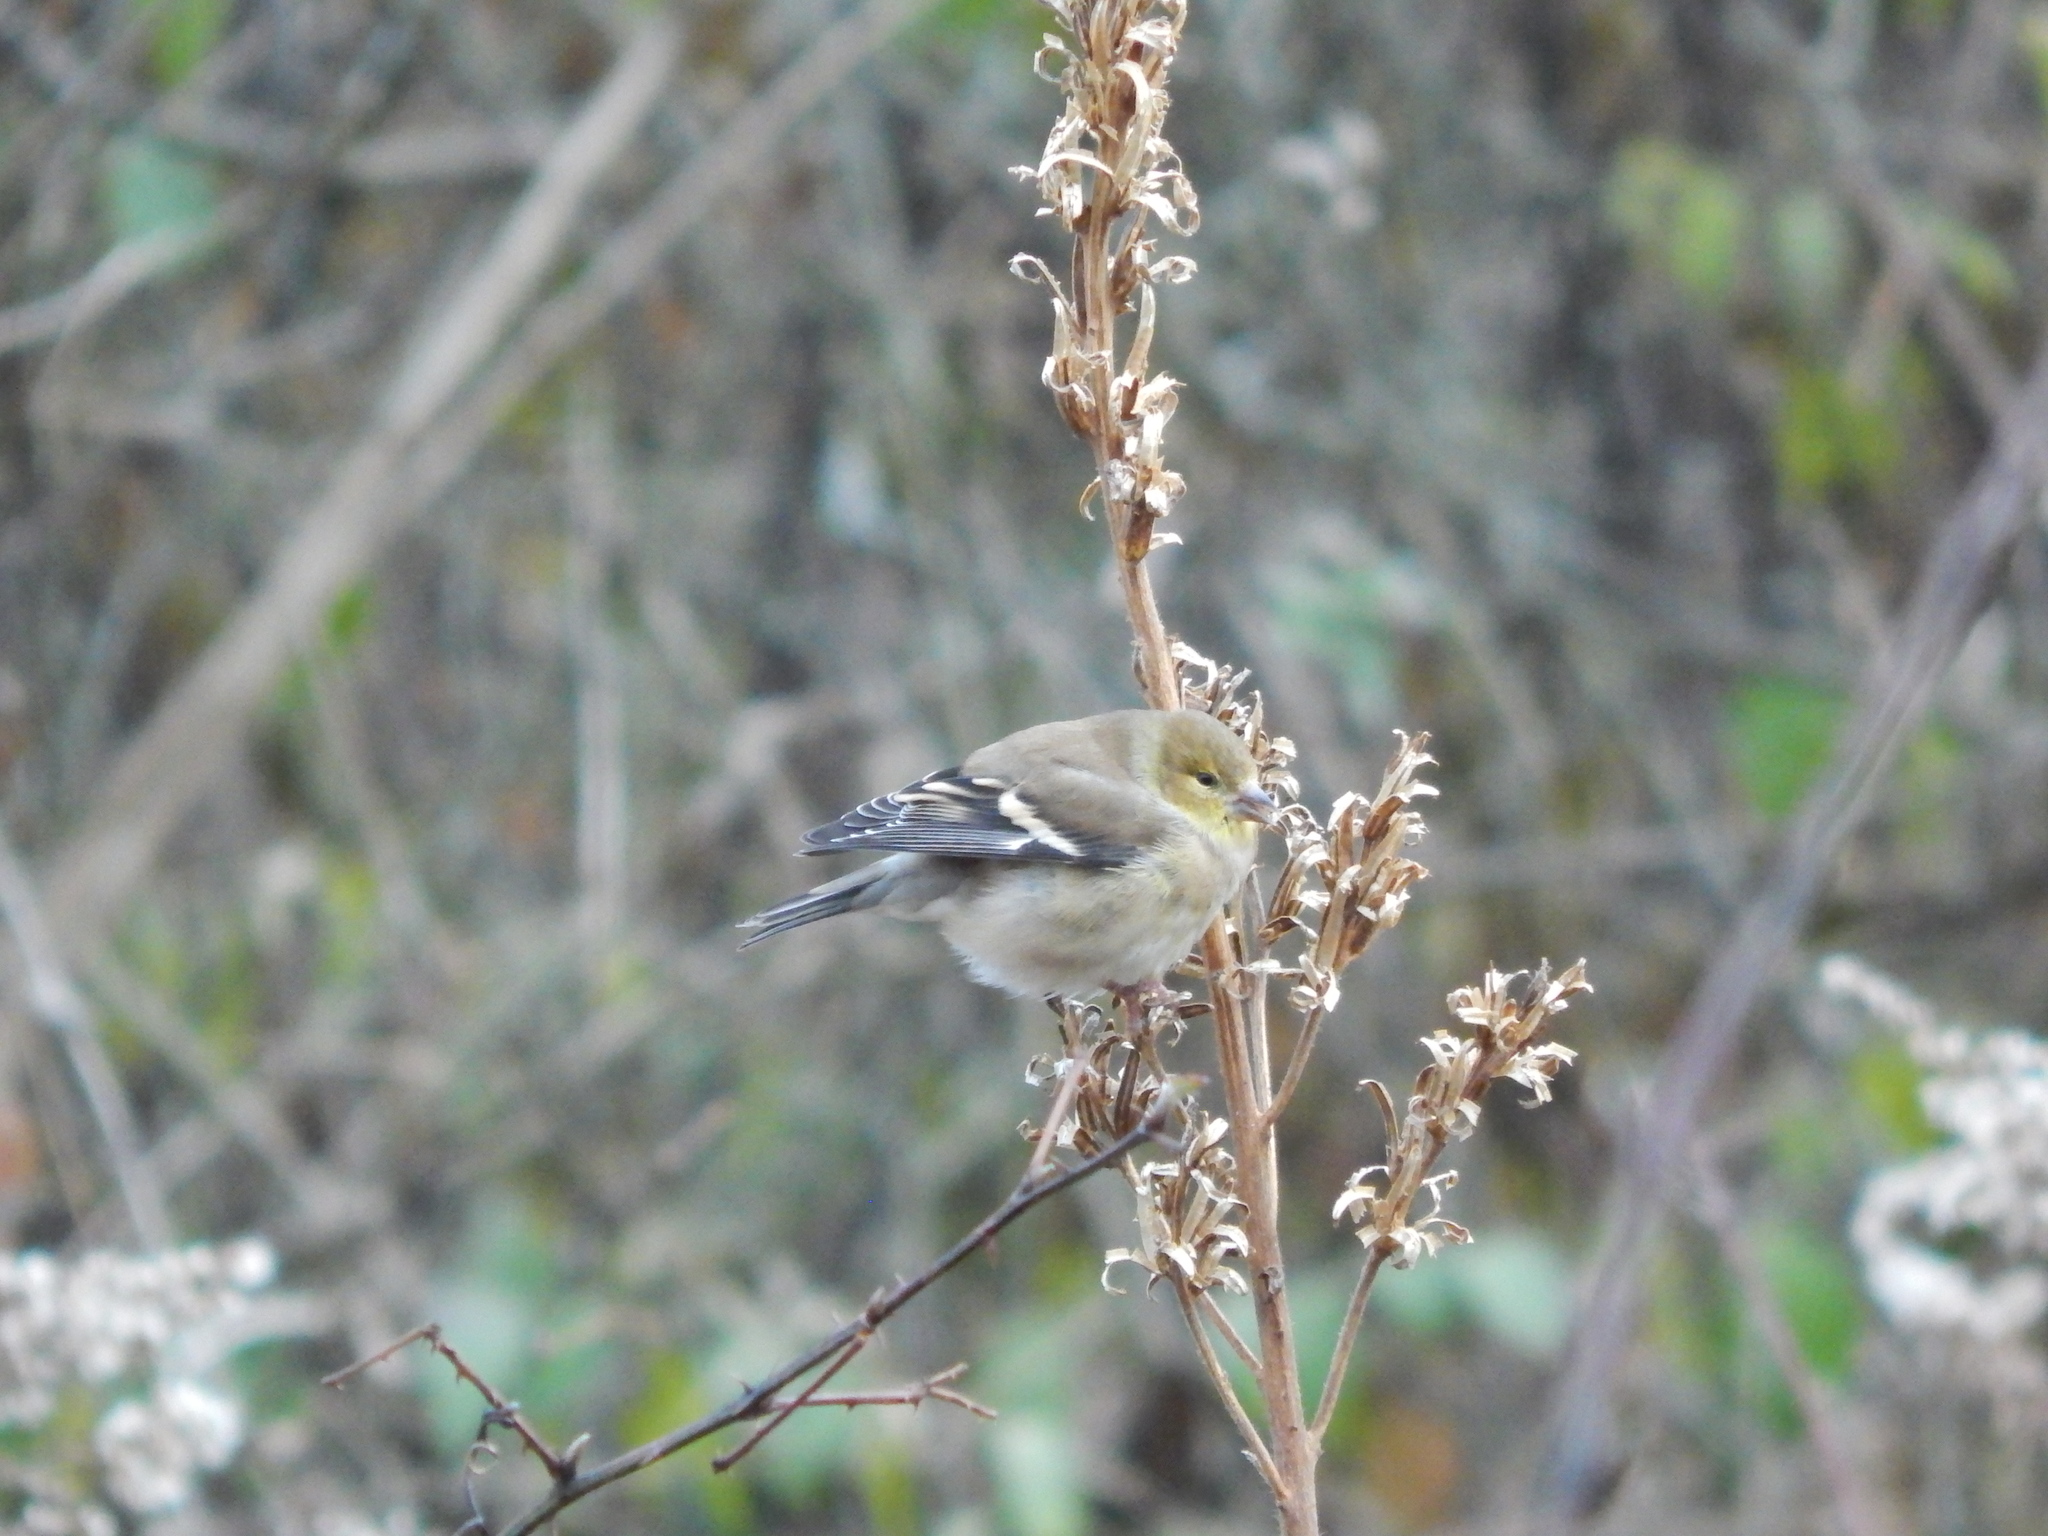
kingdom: Animalia
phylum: Chordata
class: Aves
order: Passeriformes
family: Fringillidae
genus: Spinus
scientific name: Spinus tristis
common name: American goldfinch
